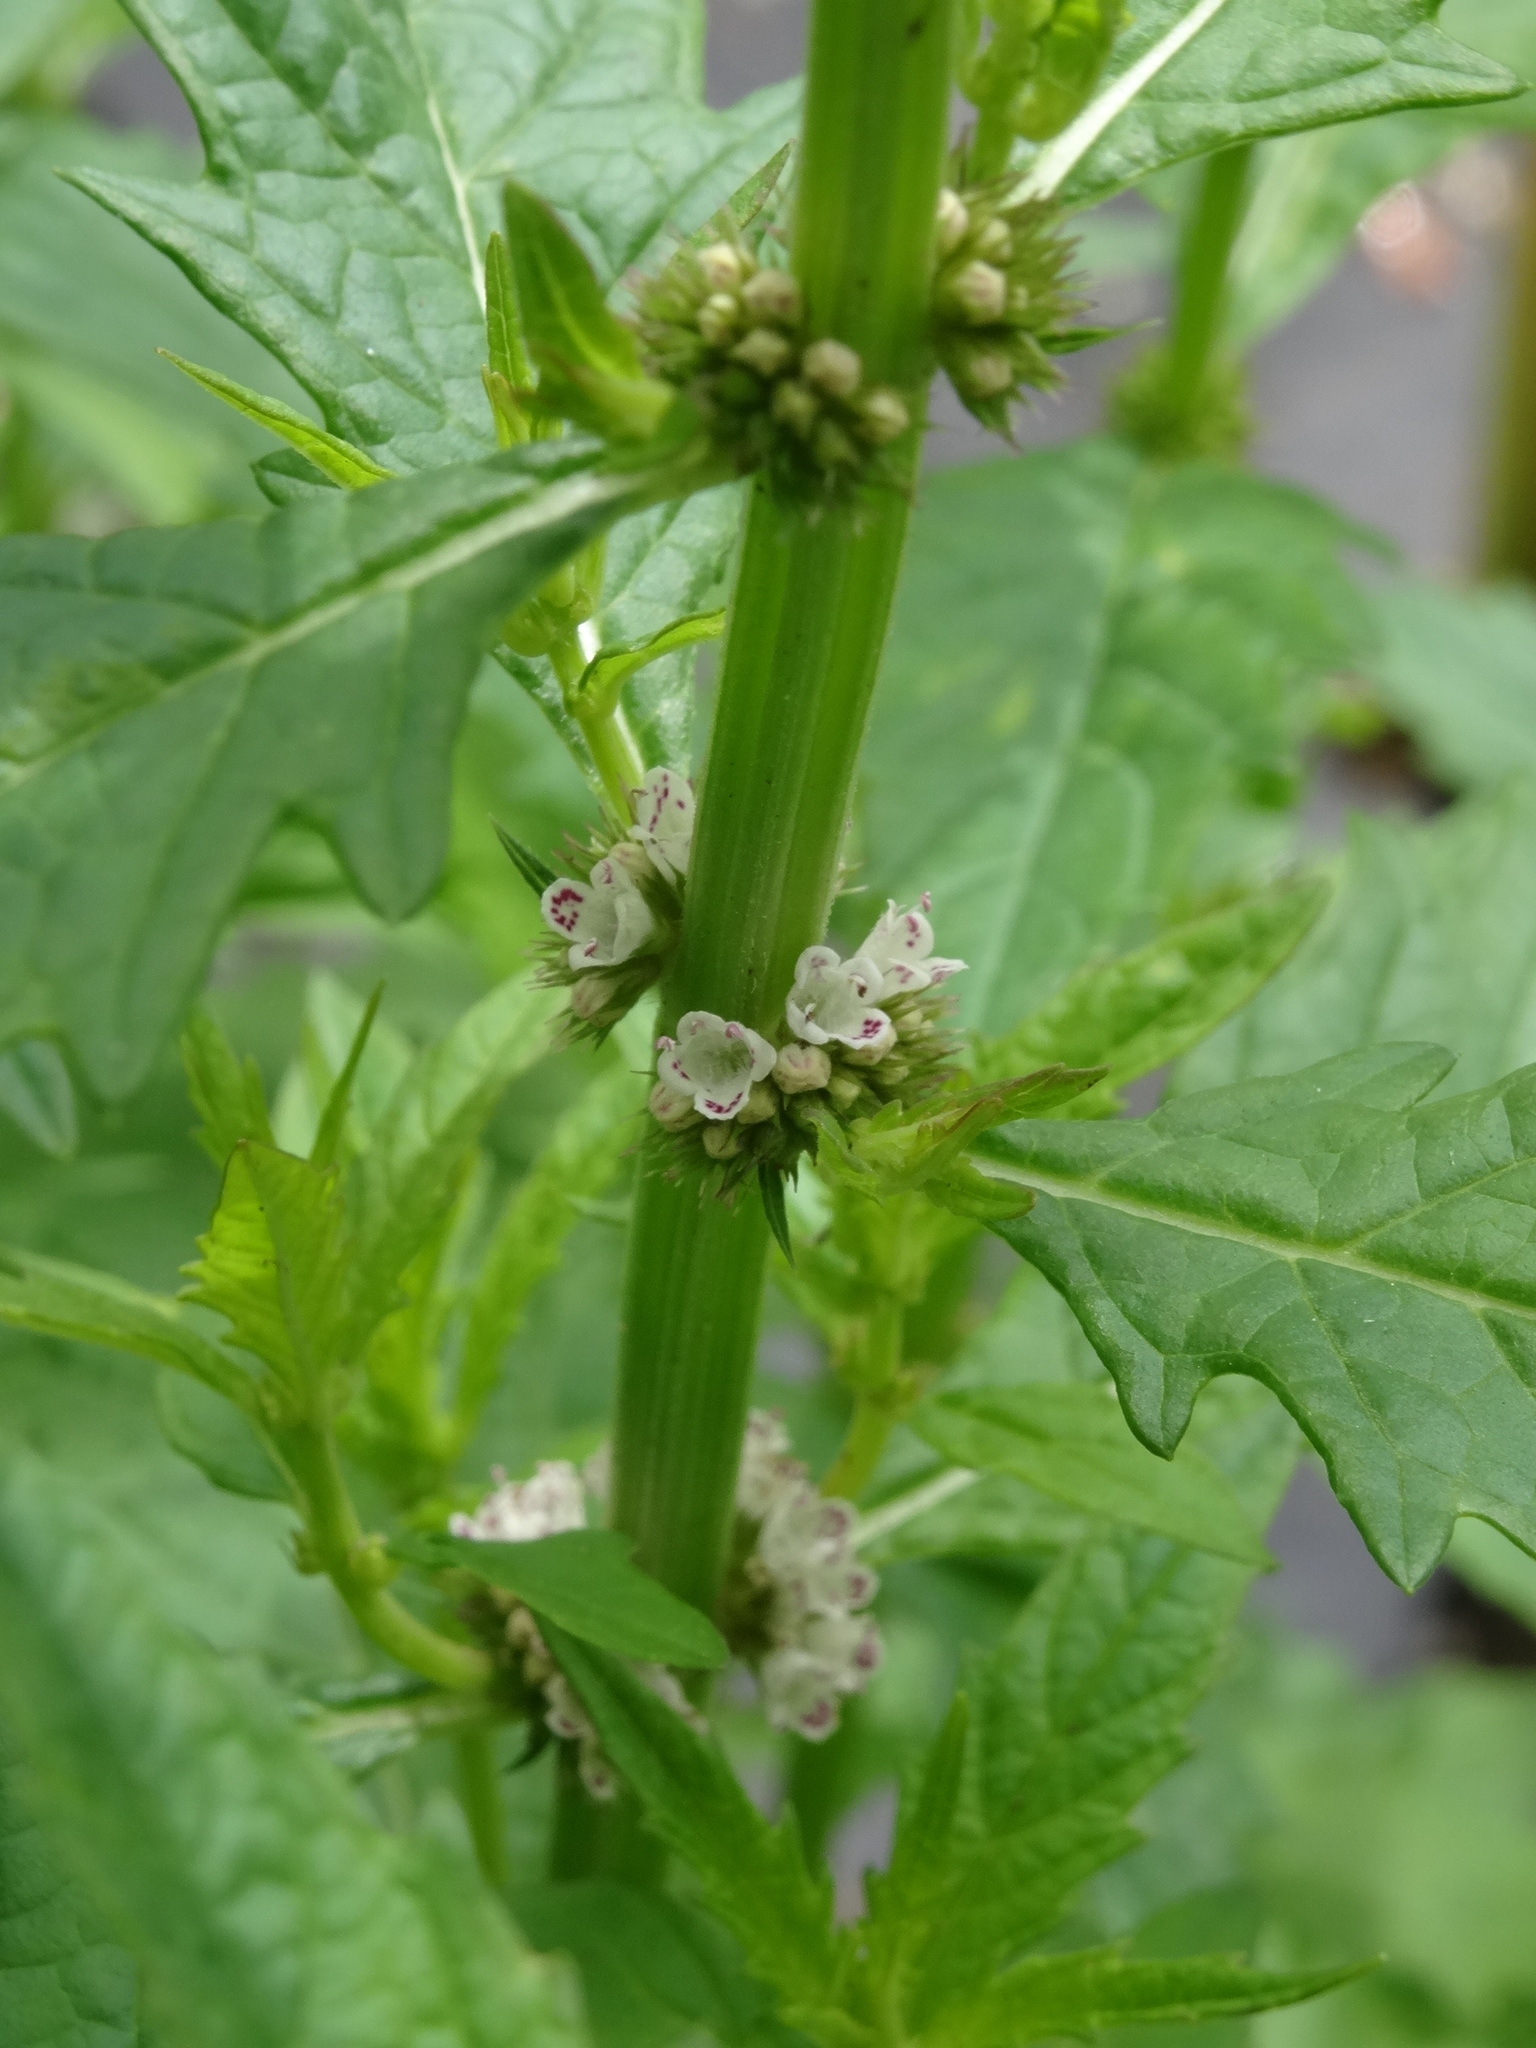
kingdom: Plantae
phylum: Tracheophyta
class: Magnoliopsida
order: Lamiales
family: Lamiaceae
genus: Lycopus
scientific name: Lycopus europaeus
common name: European bugleweed
